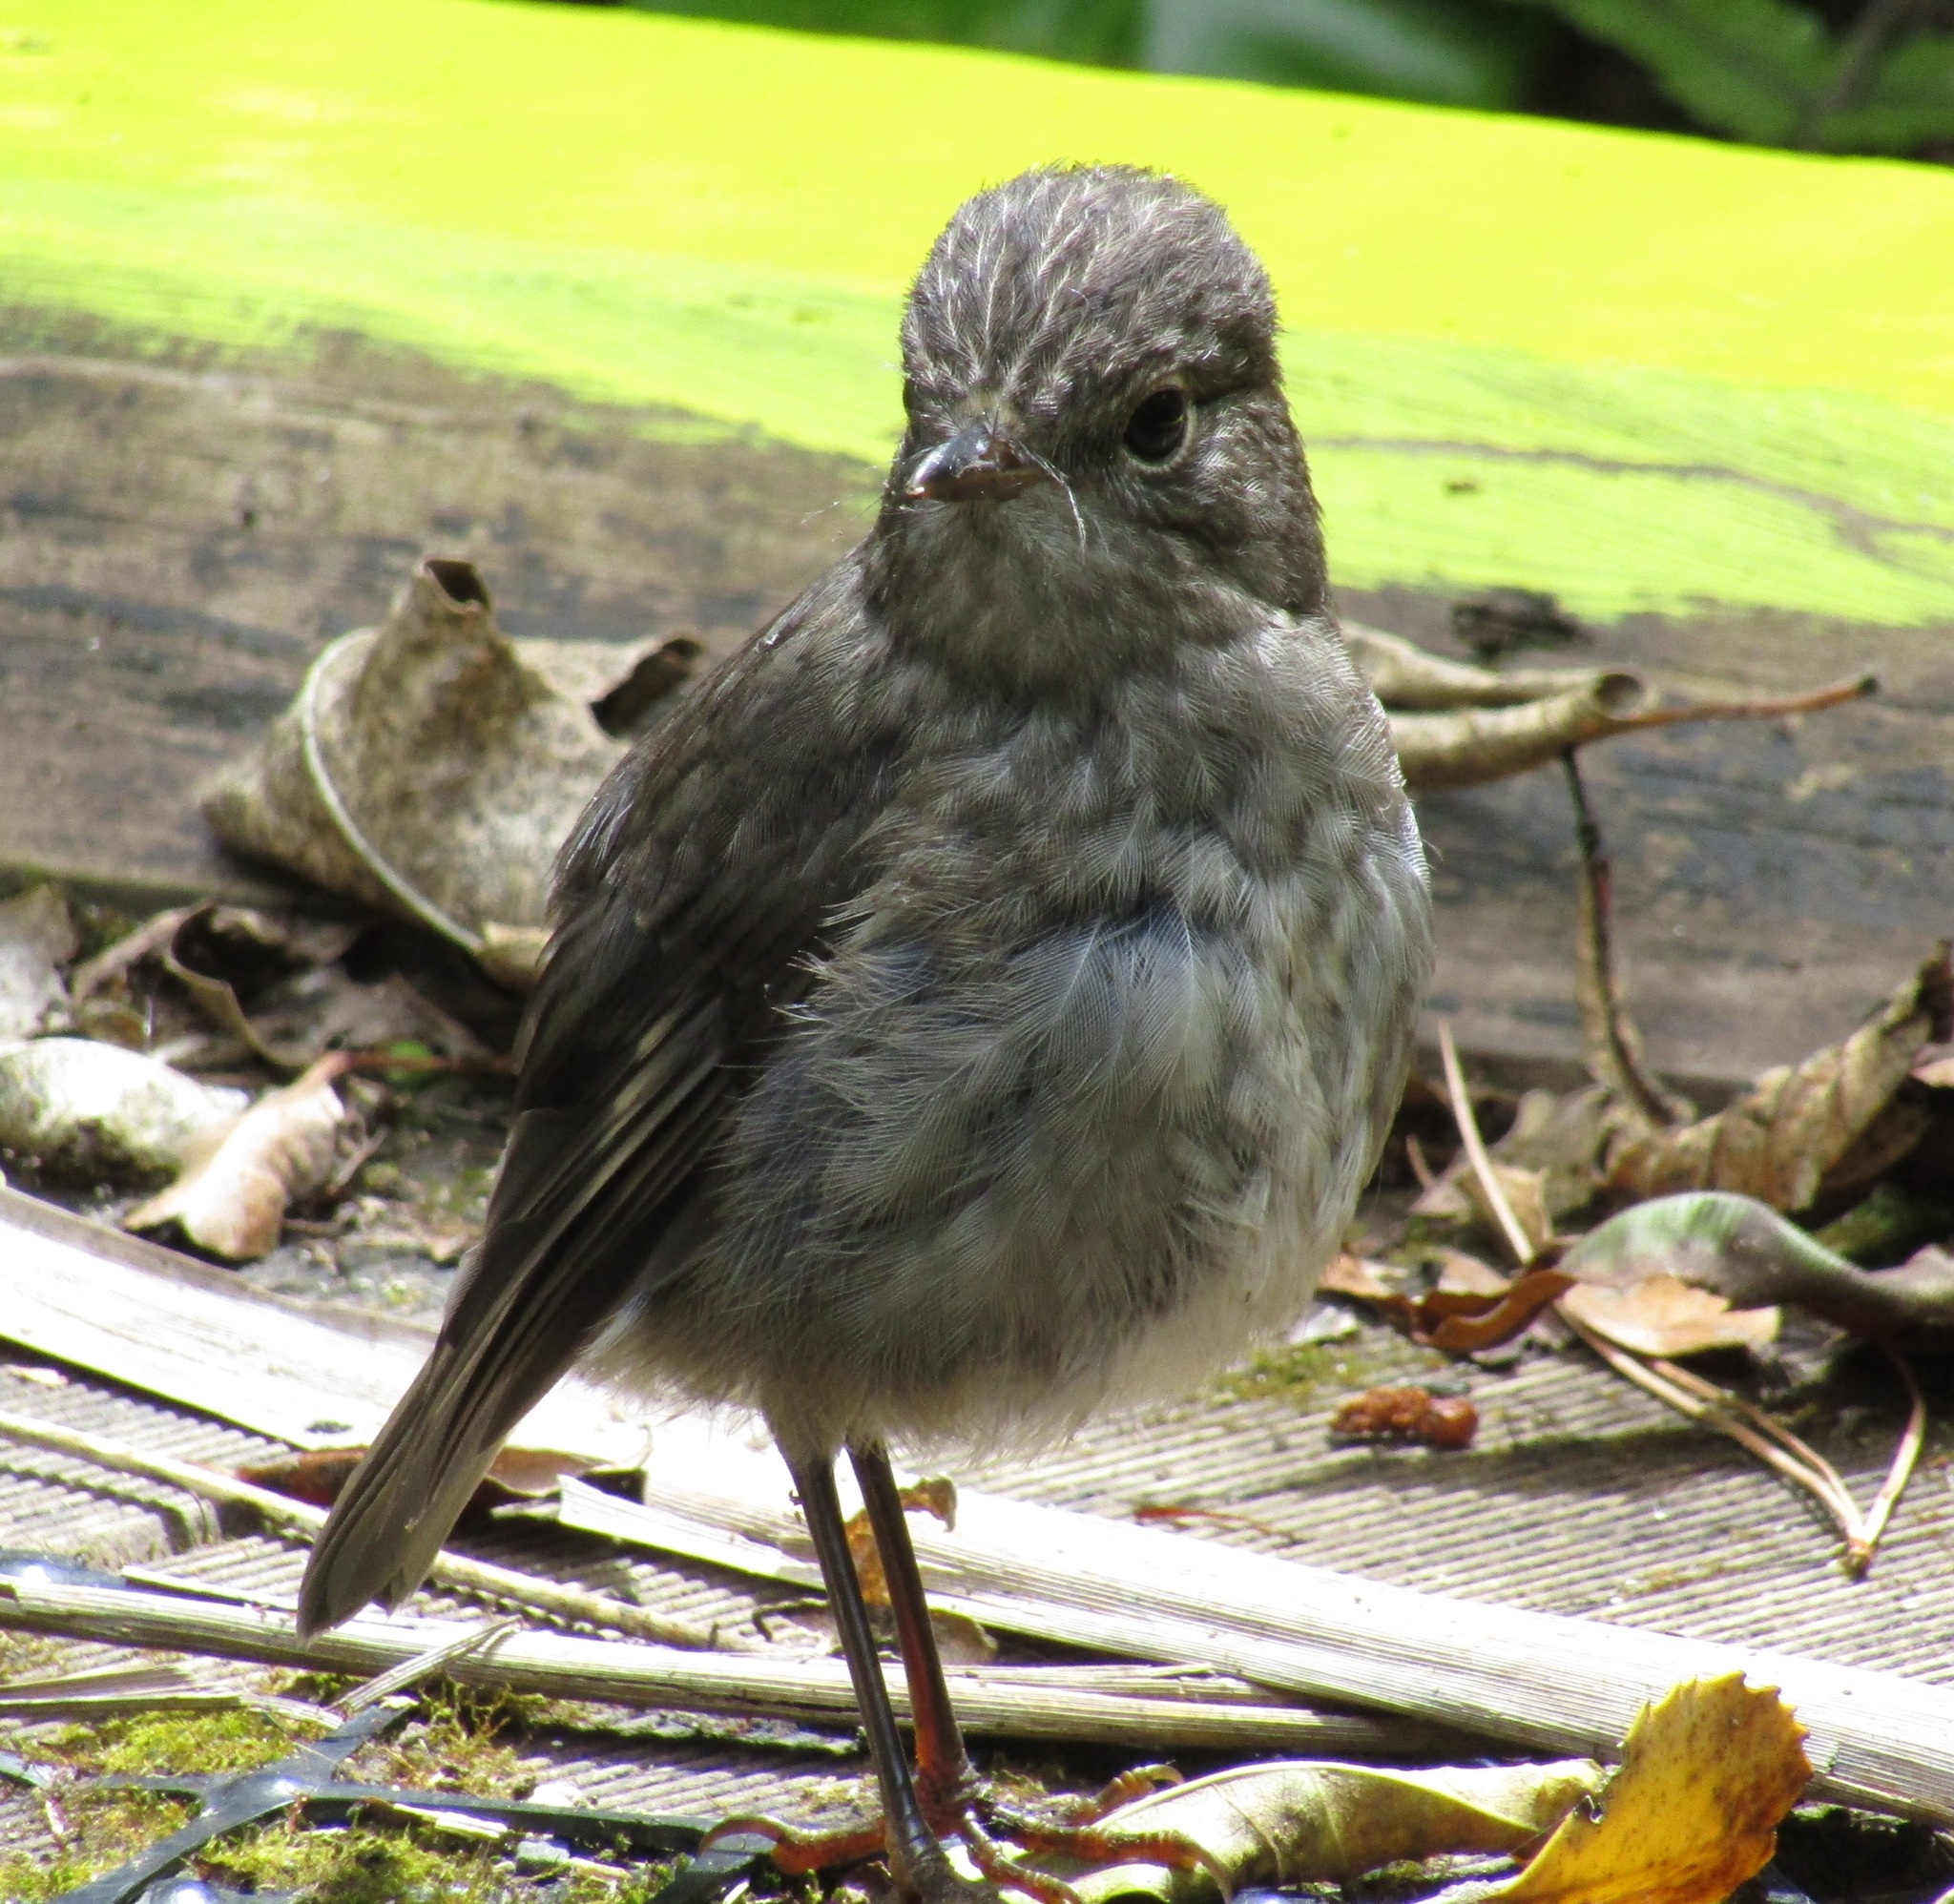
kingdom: Animalia
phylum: Chordata
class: Aves
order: Passeriformes
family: Petroicidae
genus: Petroica
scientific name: Petroica australis
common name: New zealand robin
